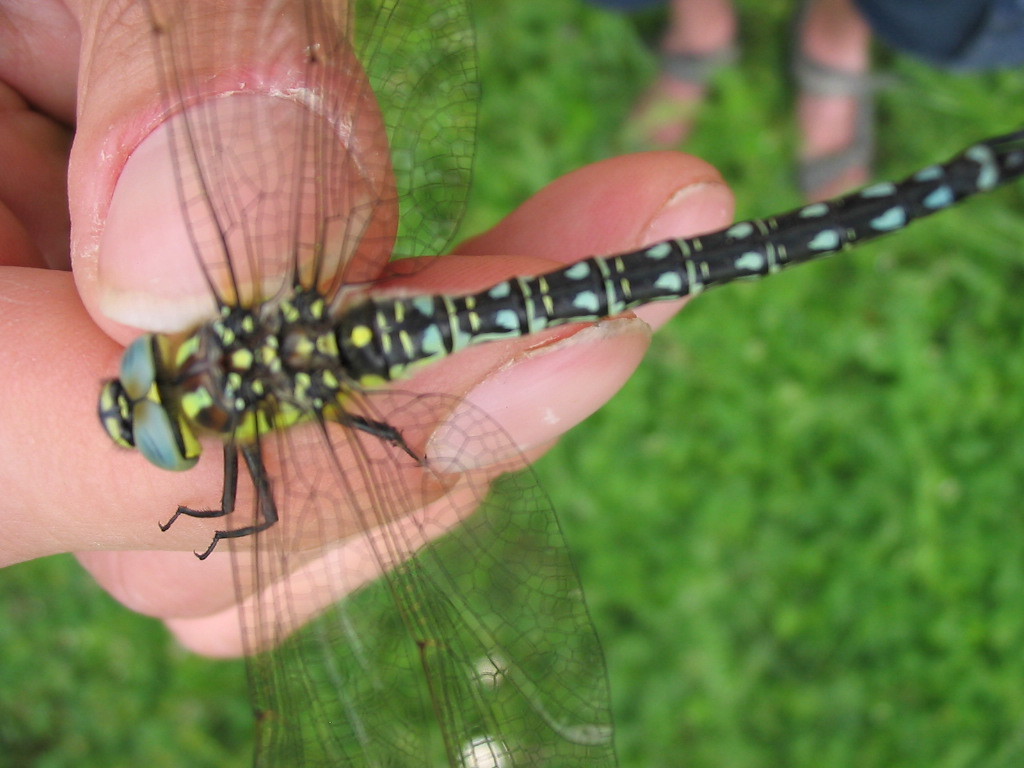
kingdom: Animalia
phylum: Arthropoda
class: Insecta
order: Odonata
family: Aeshnidae
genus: Brachytron
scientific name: Brachytron pratense
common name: Hairy hawker
